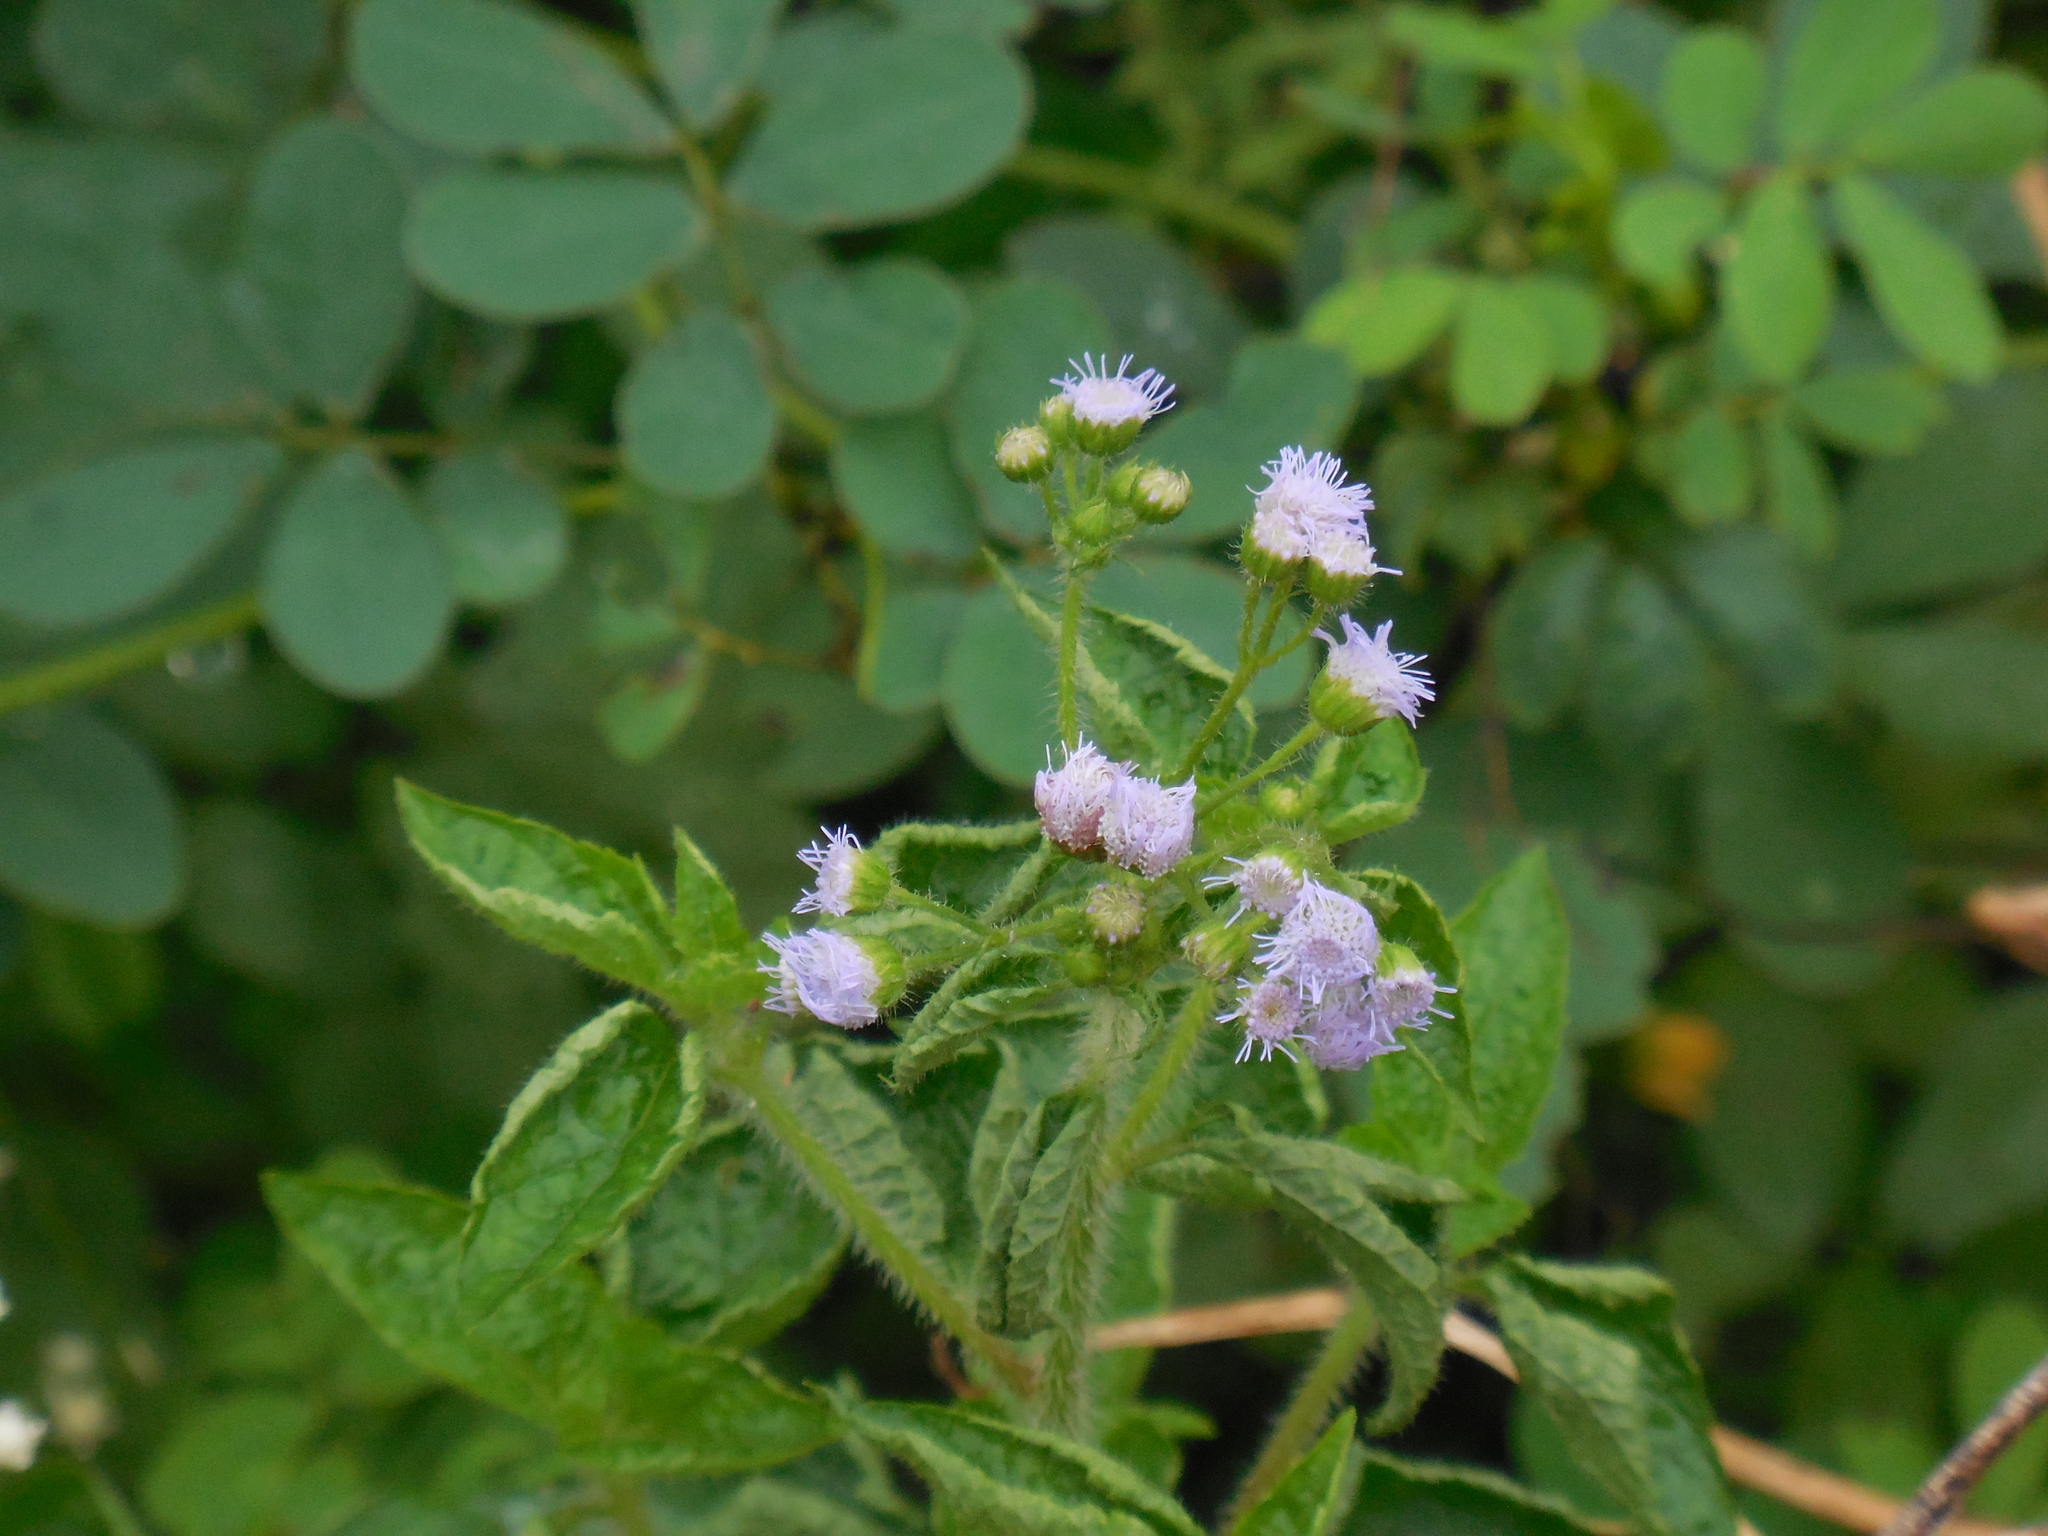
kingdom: Plantae
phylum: Tracheophyta
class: Magnoliopsida
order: Asterales
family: Asteraceae
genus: Ageratum
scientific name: Ageratum conyzoides
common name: Tropical whiteweed
